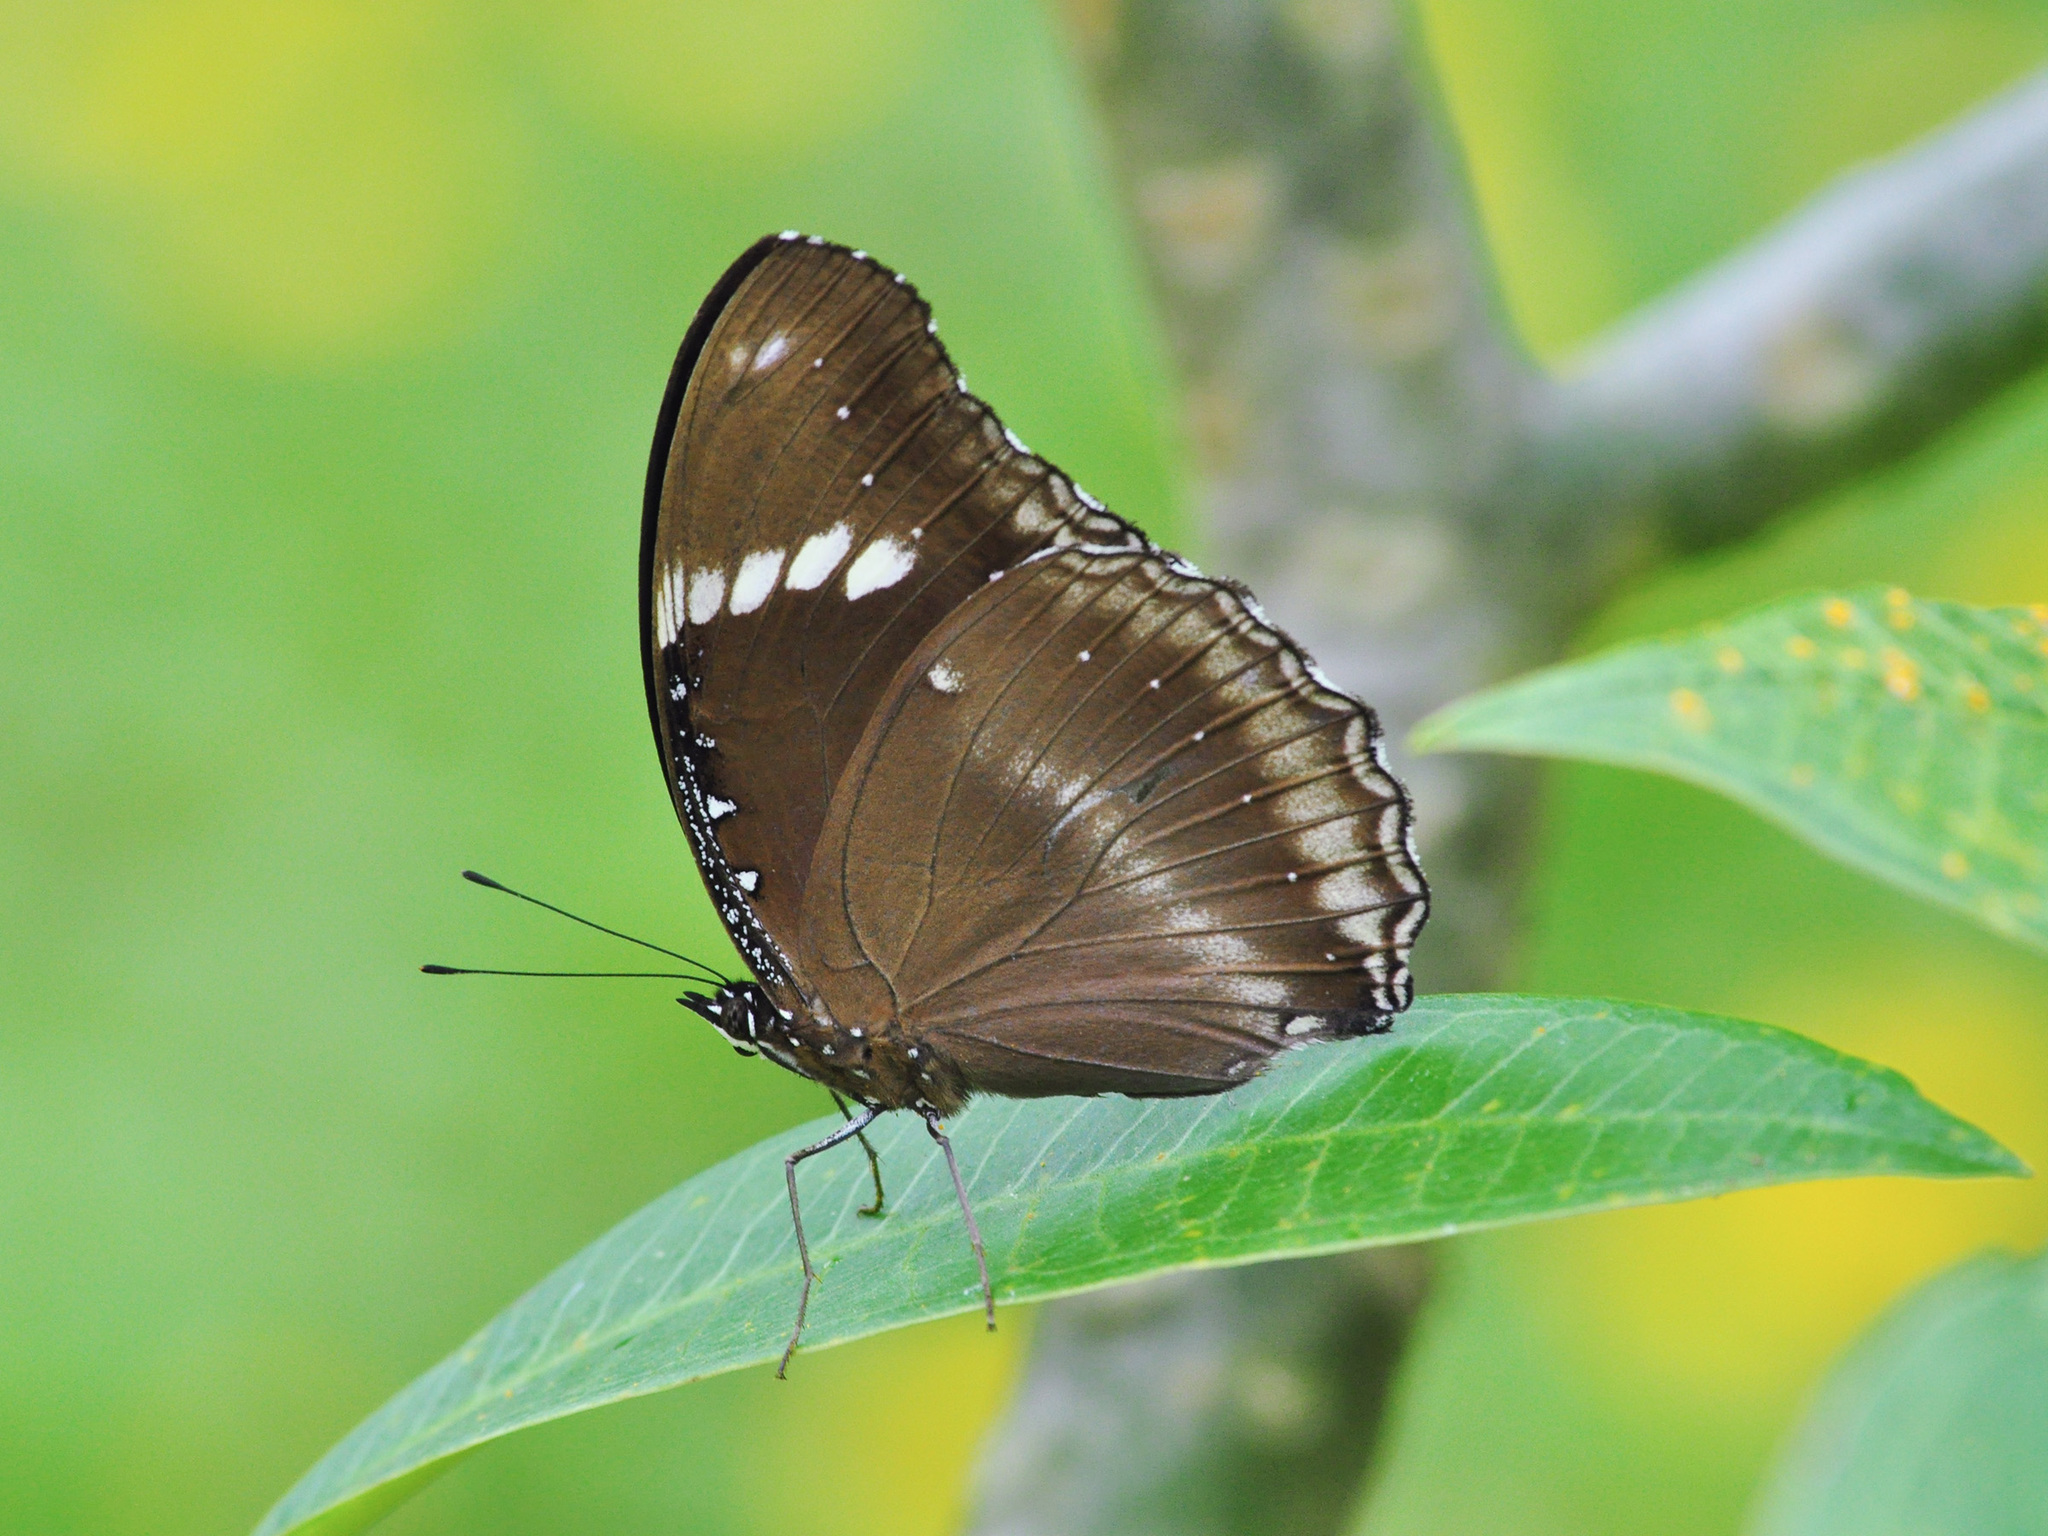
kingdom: Animalia
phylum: Arthropoda
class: Insecta
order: Lepidoptera
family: Nymphalidae
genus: Hypolimnas
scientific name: Hypolimnas bolina
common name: Great eggfly
